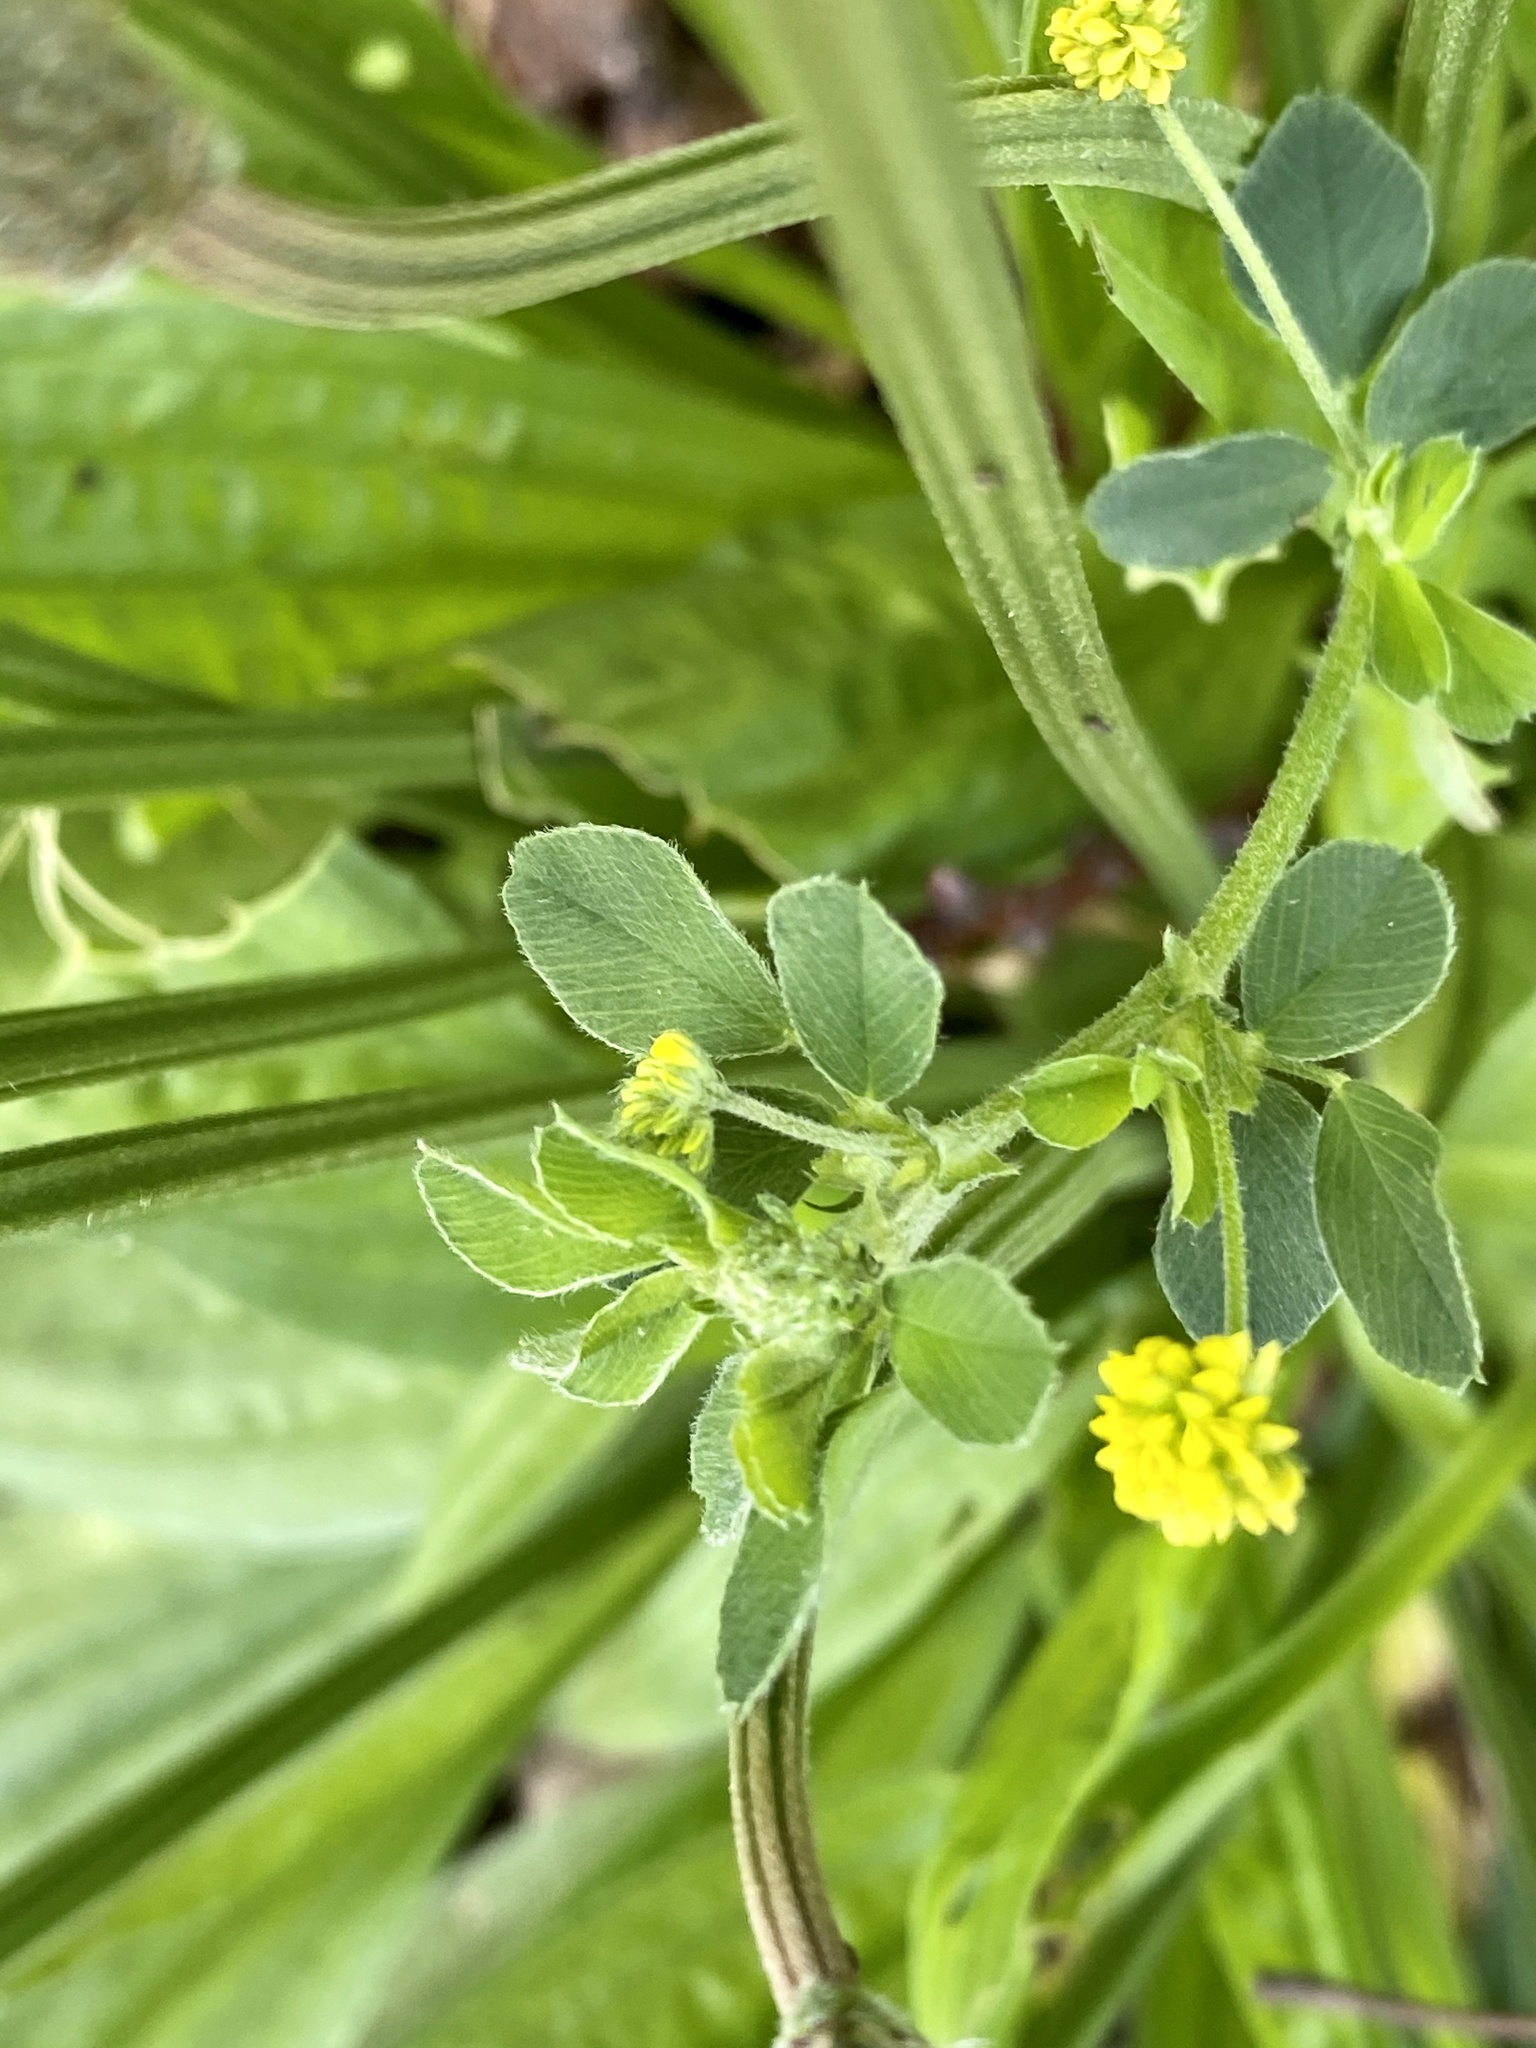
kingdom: Plantae
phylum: Tracheophyta
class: Magnoliopsida
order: Fabales
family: Fabaceae
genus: Medicago
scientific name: Medicago lupulina
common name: Black medick
